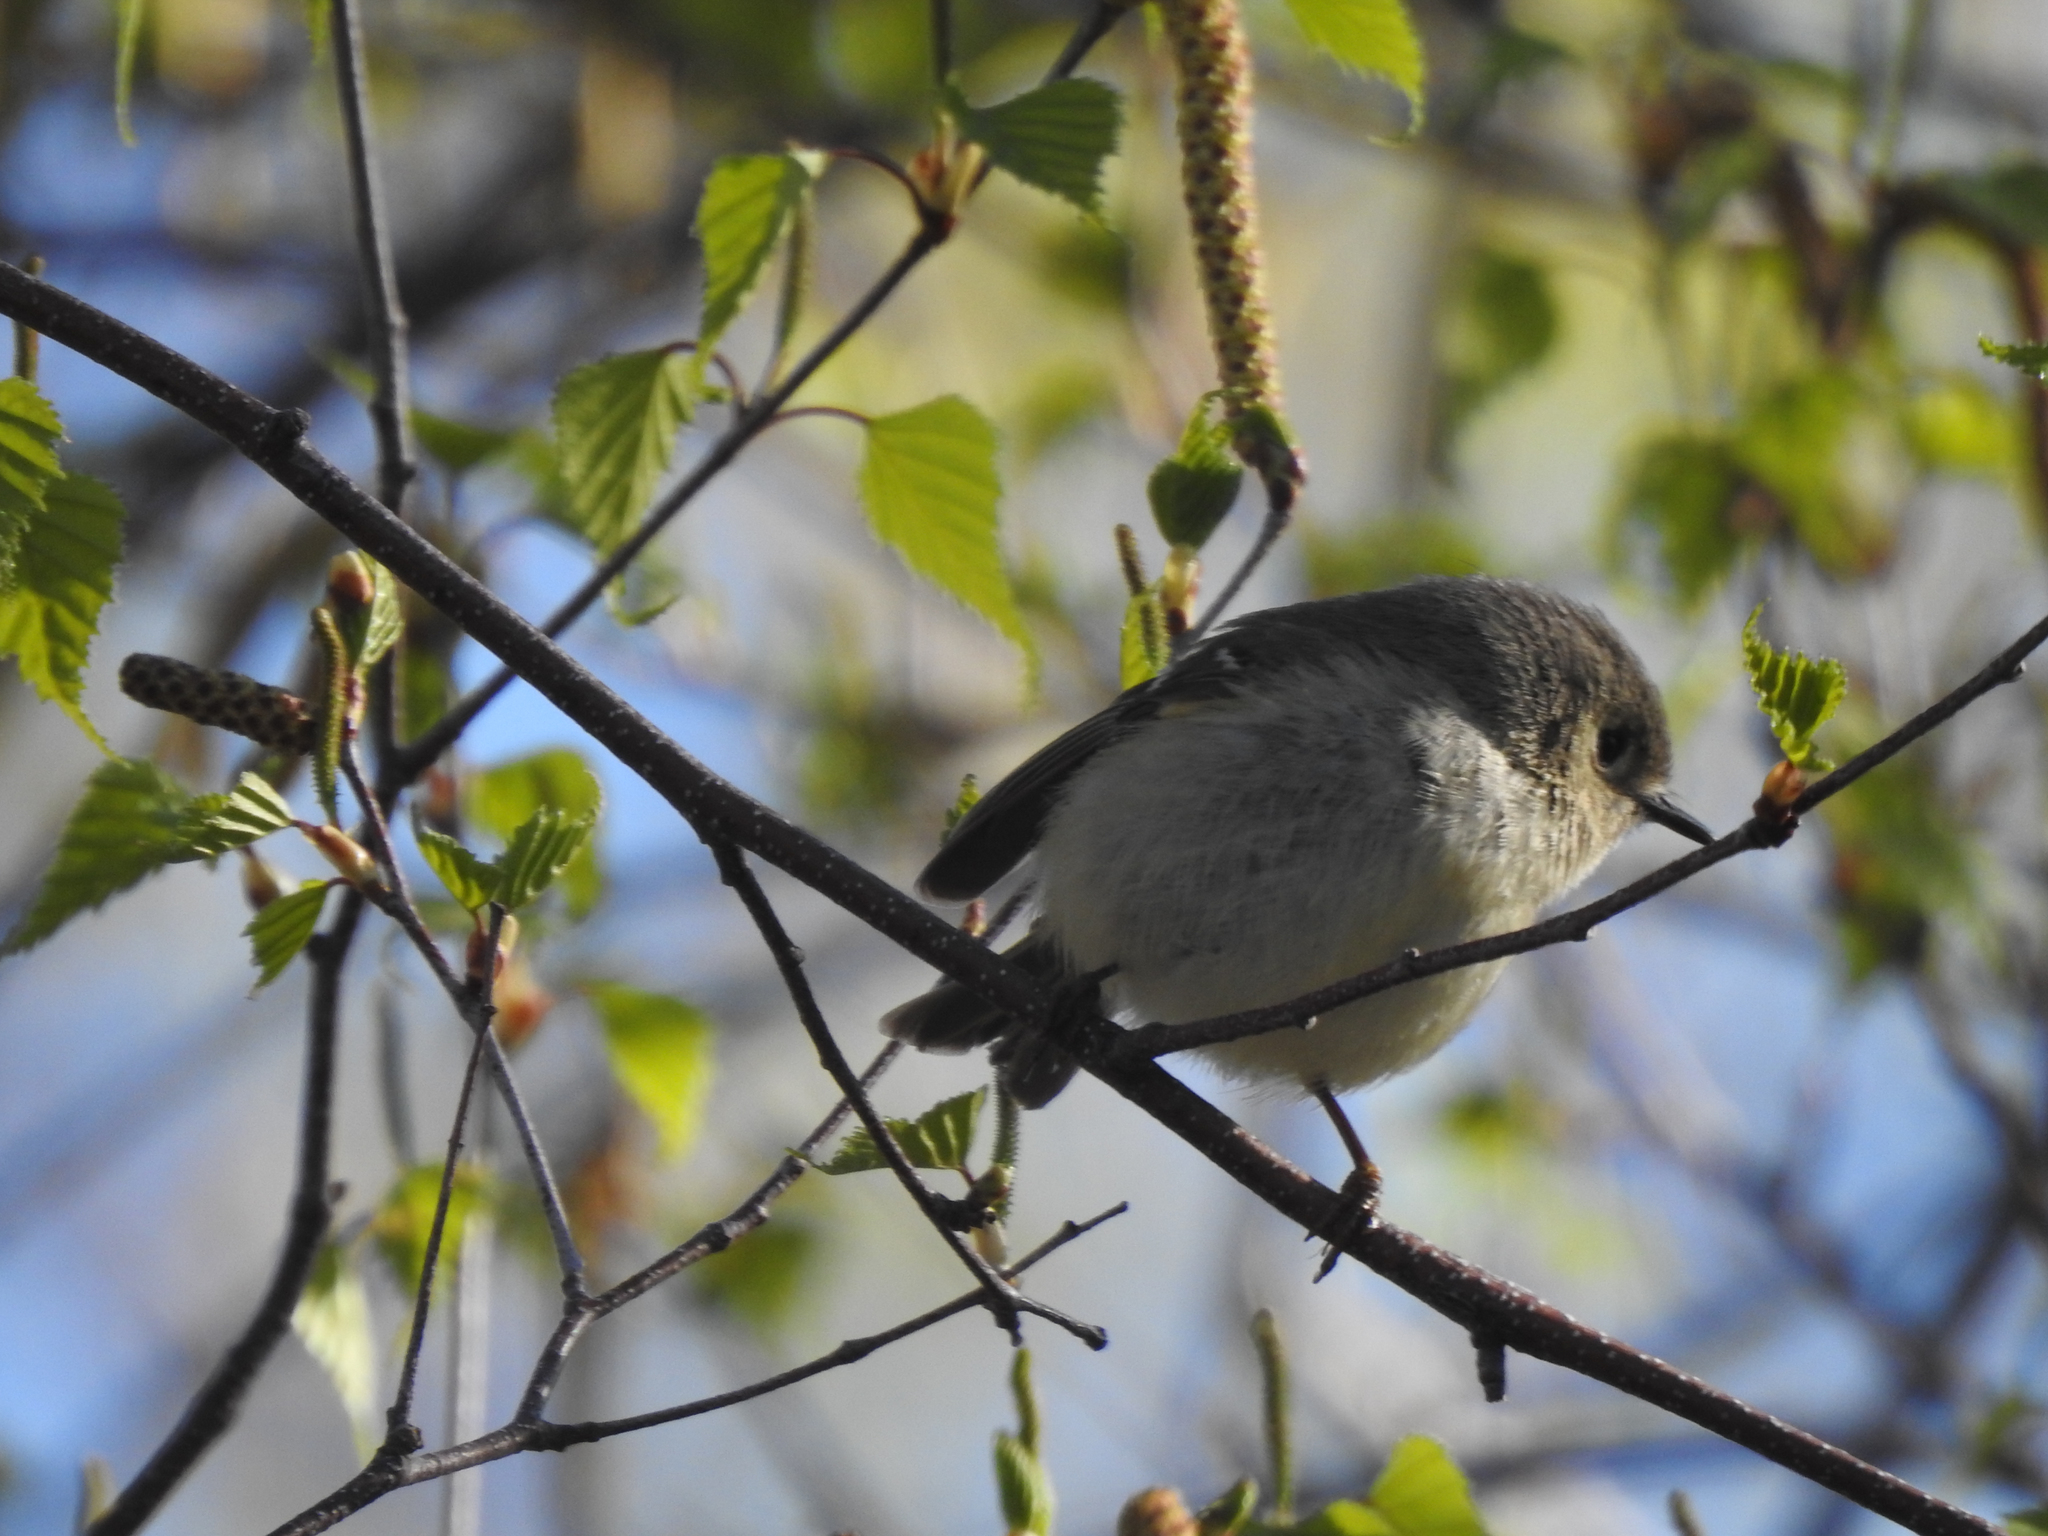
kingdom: Animalia
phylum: Chordata
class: Aves
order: Passeriformes
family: Regulidae
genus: Regulus
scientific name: Regulus calendula
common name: Ruby-crowned kinglet
